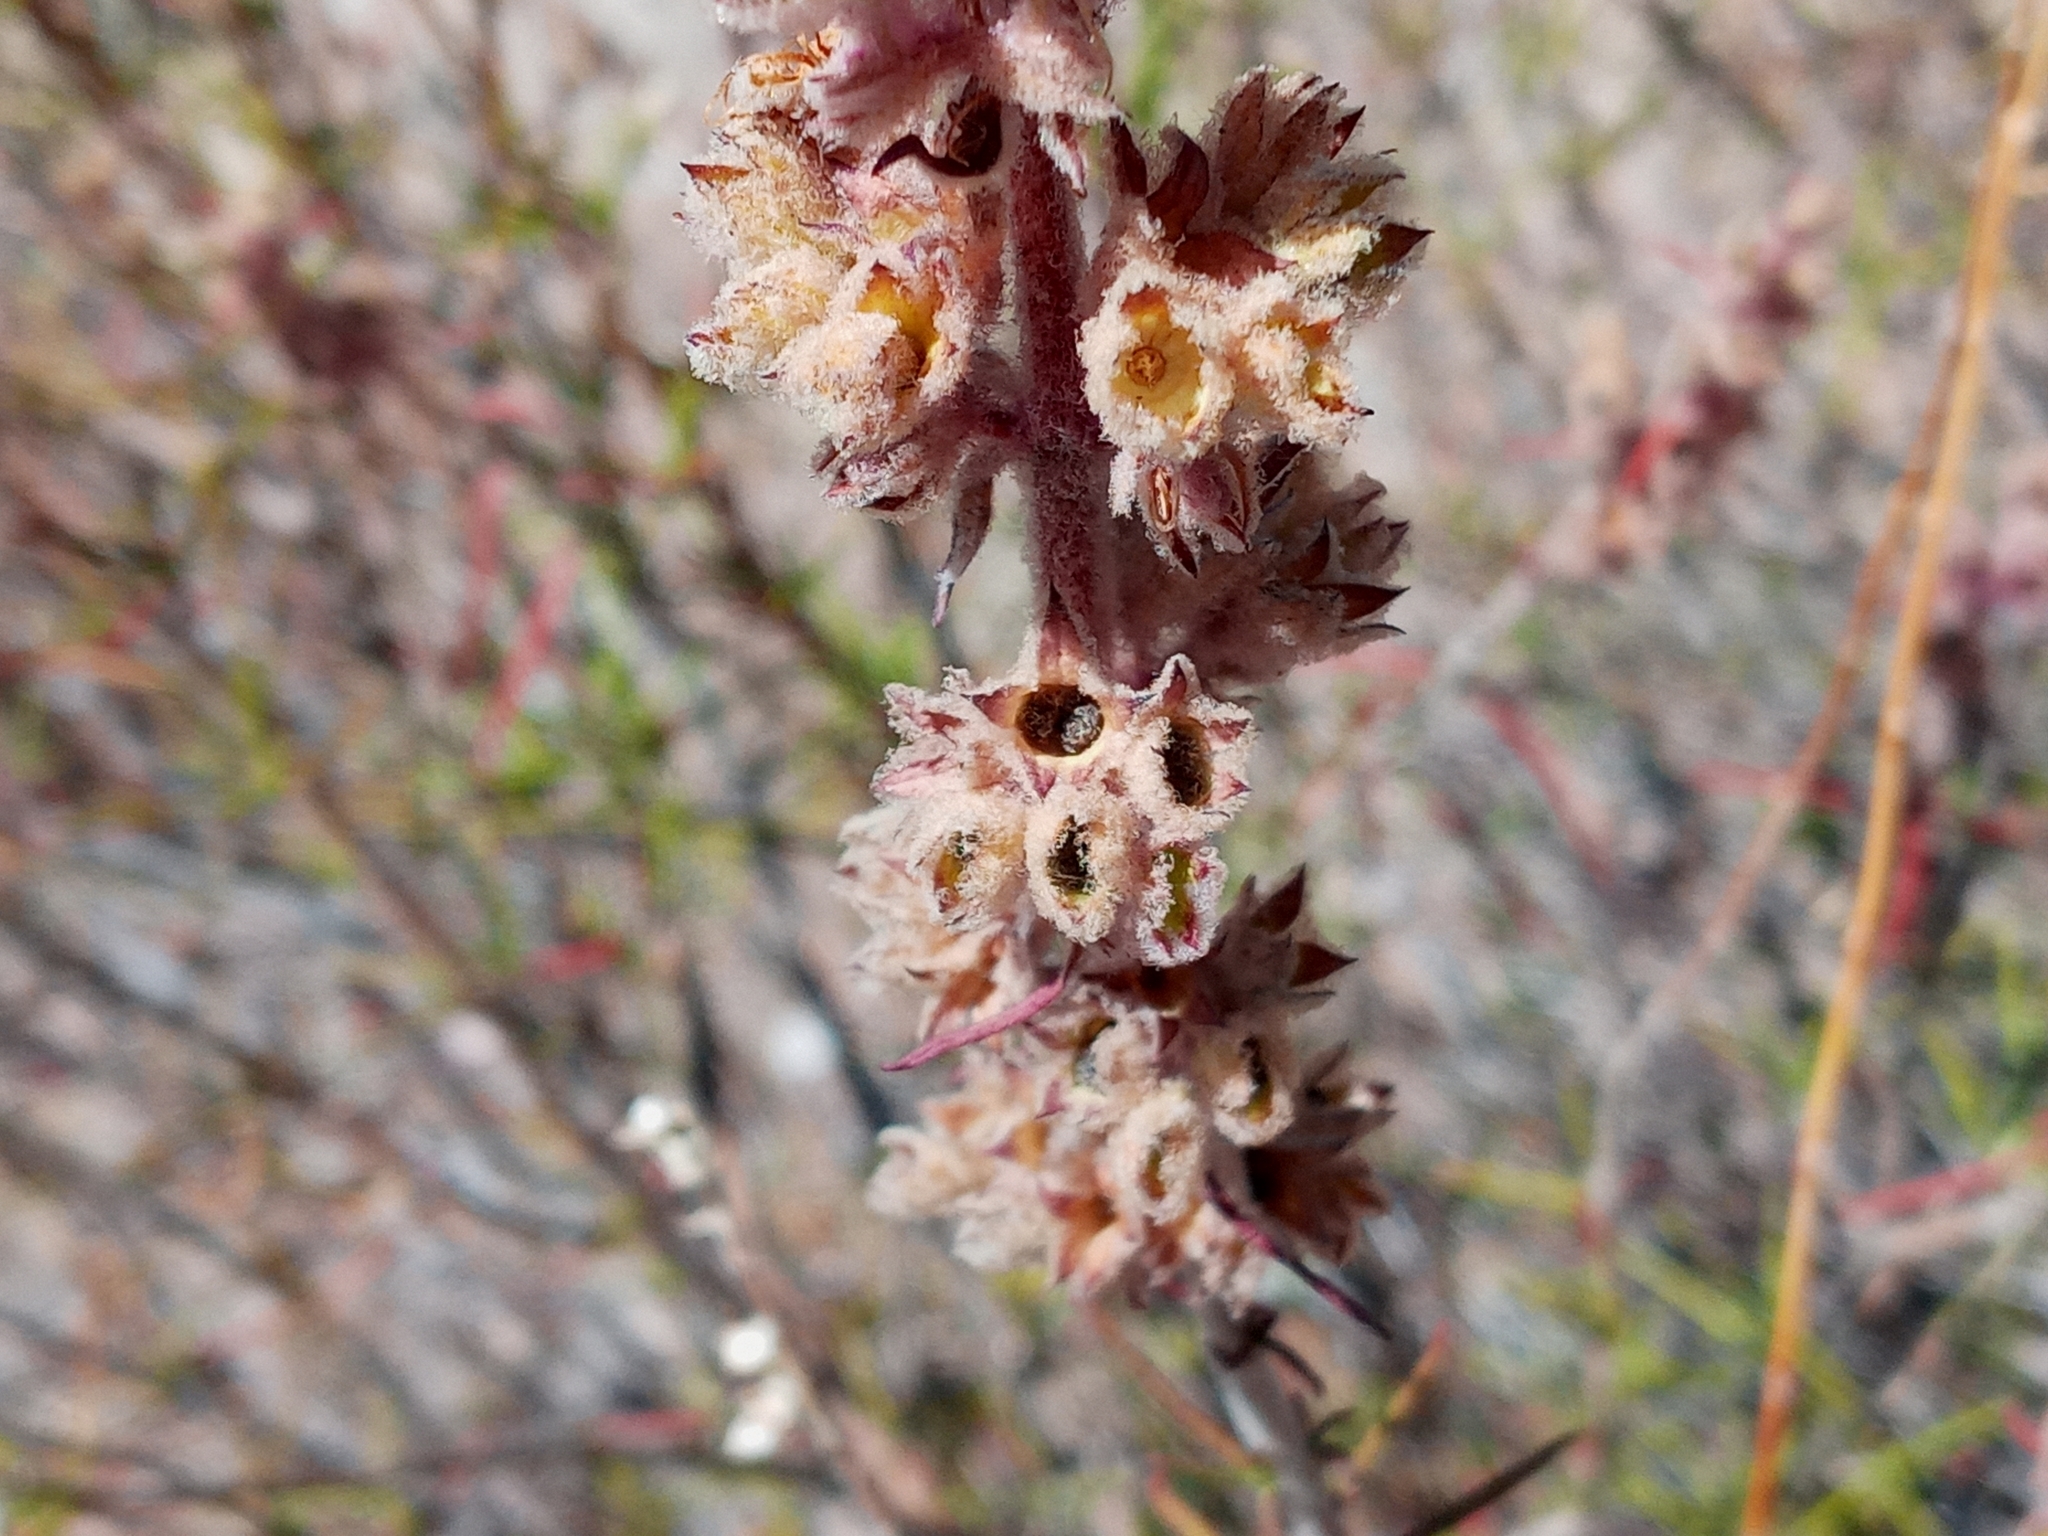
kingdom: Plantae
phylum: Tracheophyta
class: Magnoliopsida
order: Lamiales
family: Lamiaceae
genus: Trichostema
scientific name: Trichostema lanatum
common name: Woolly bluecurls
